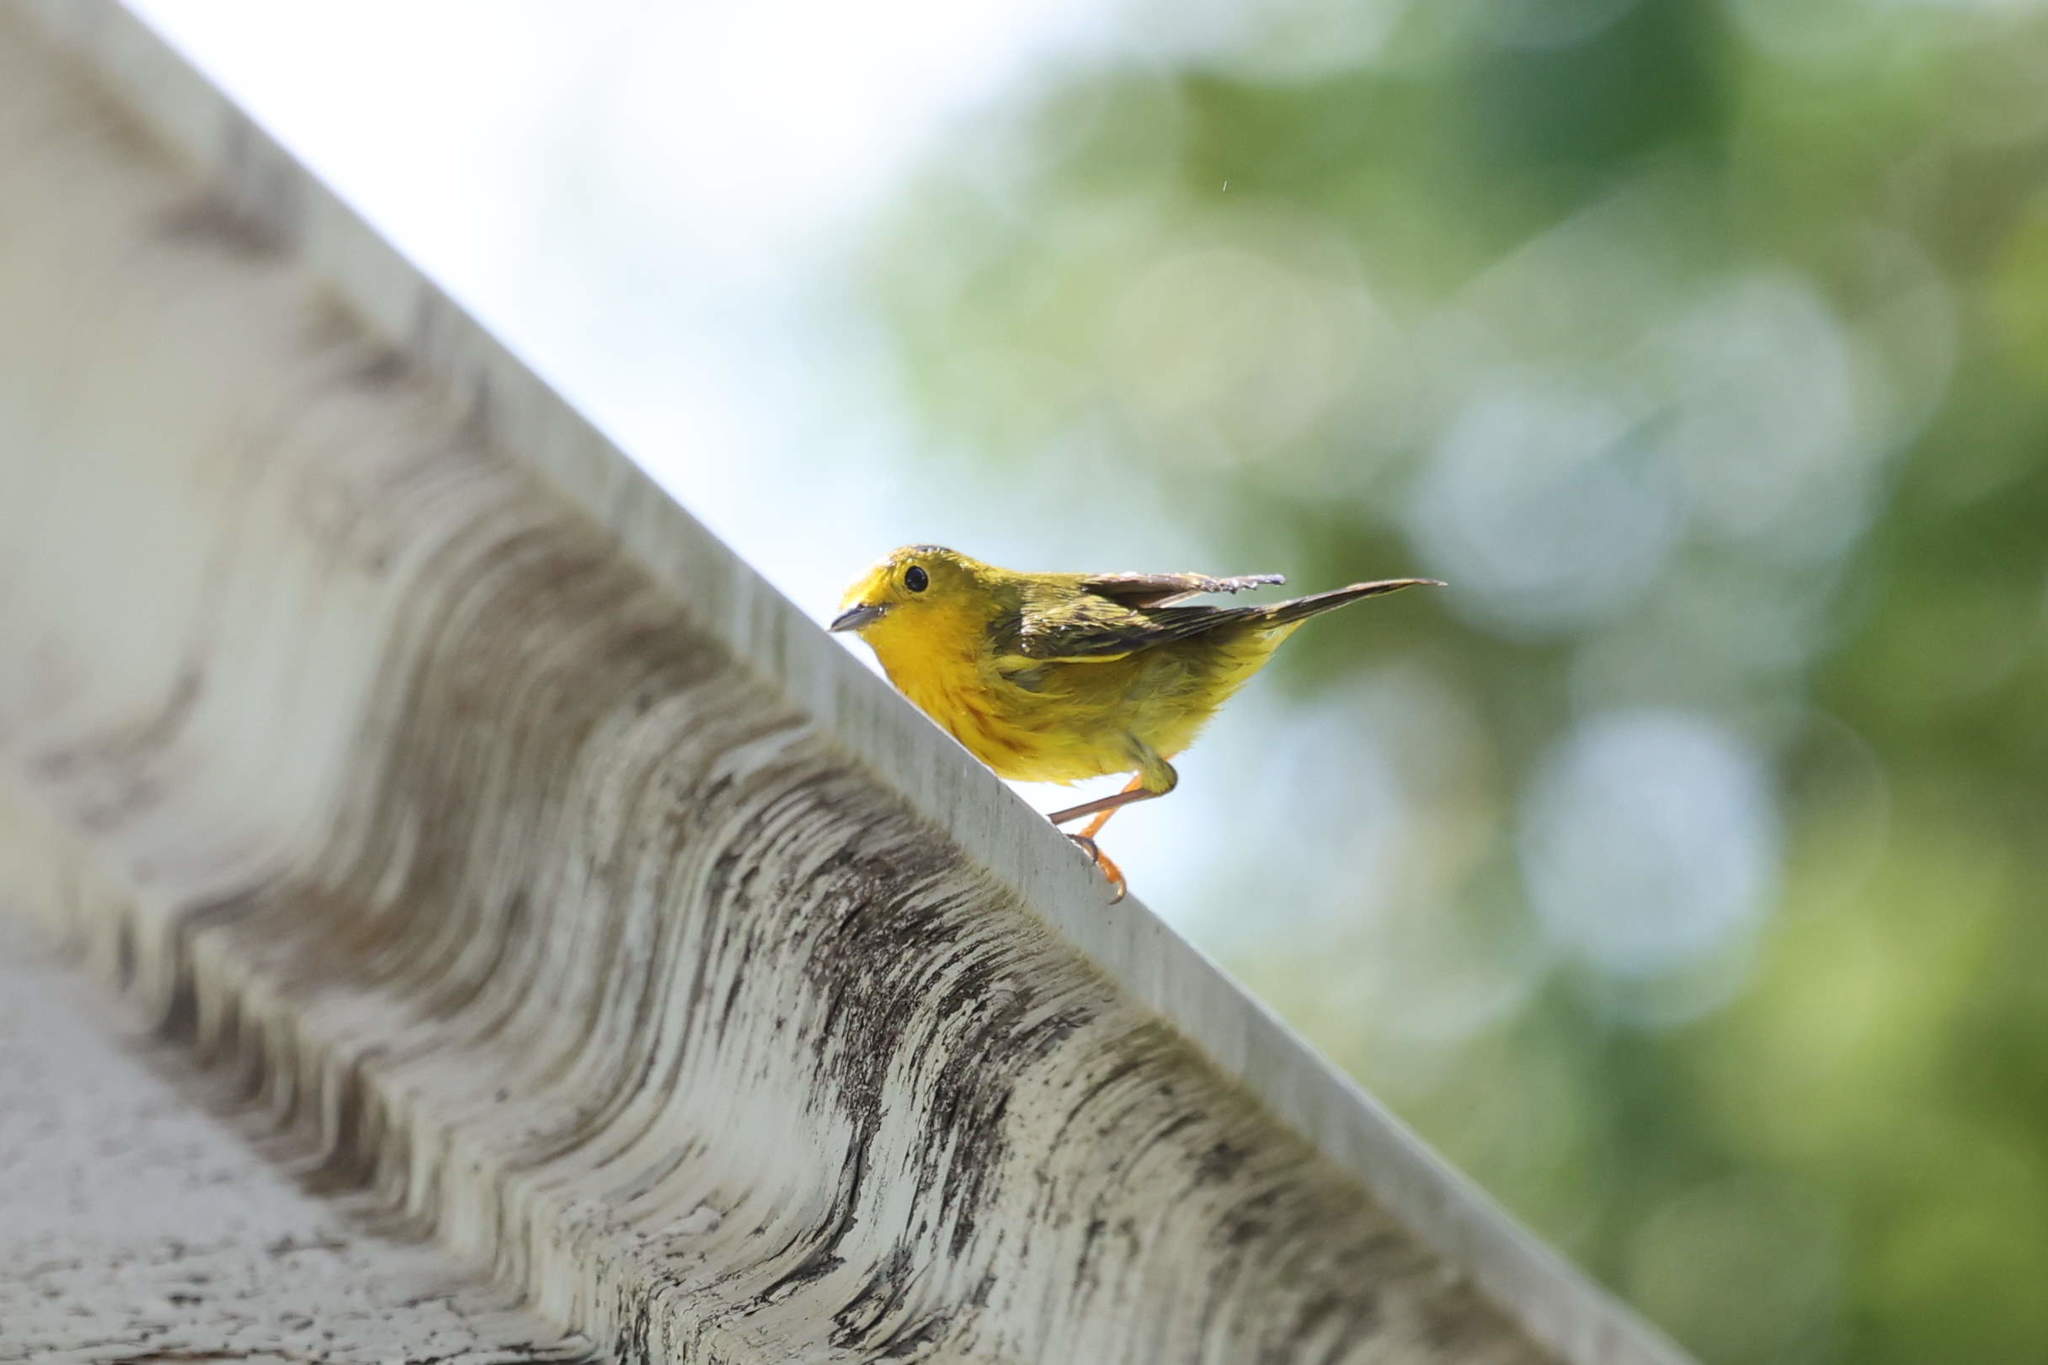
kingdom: Animalia
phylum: Chordata
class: Aves
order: Passeriformes
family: Parulidae
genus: Setophaga
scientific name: Setophaga petechia
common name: Yellow warbler
